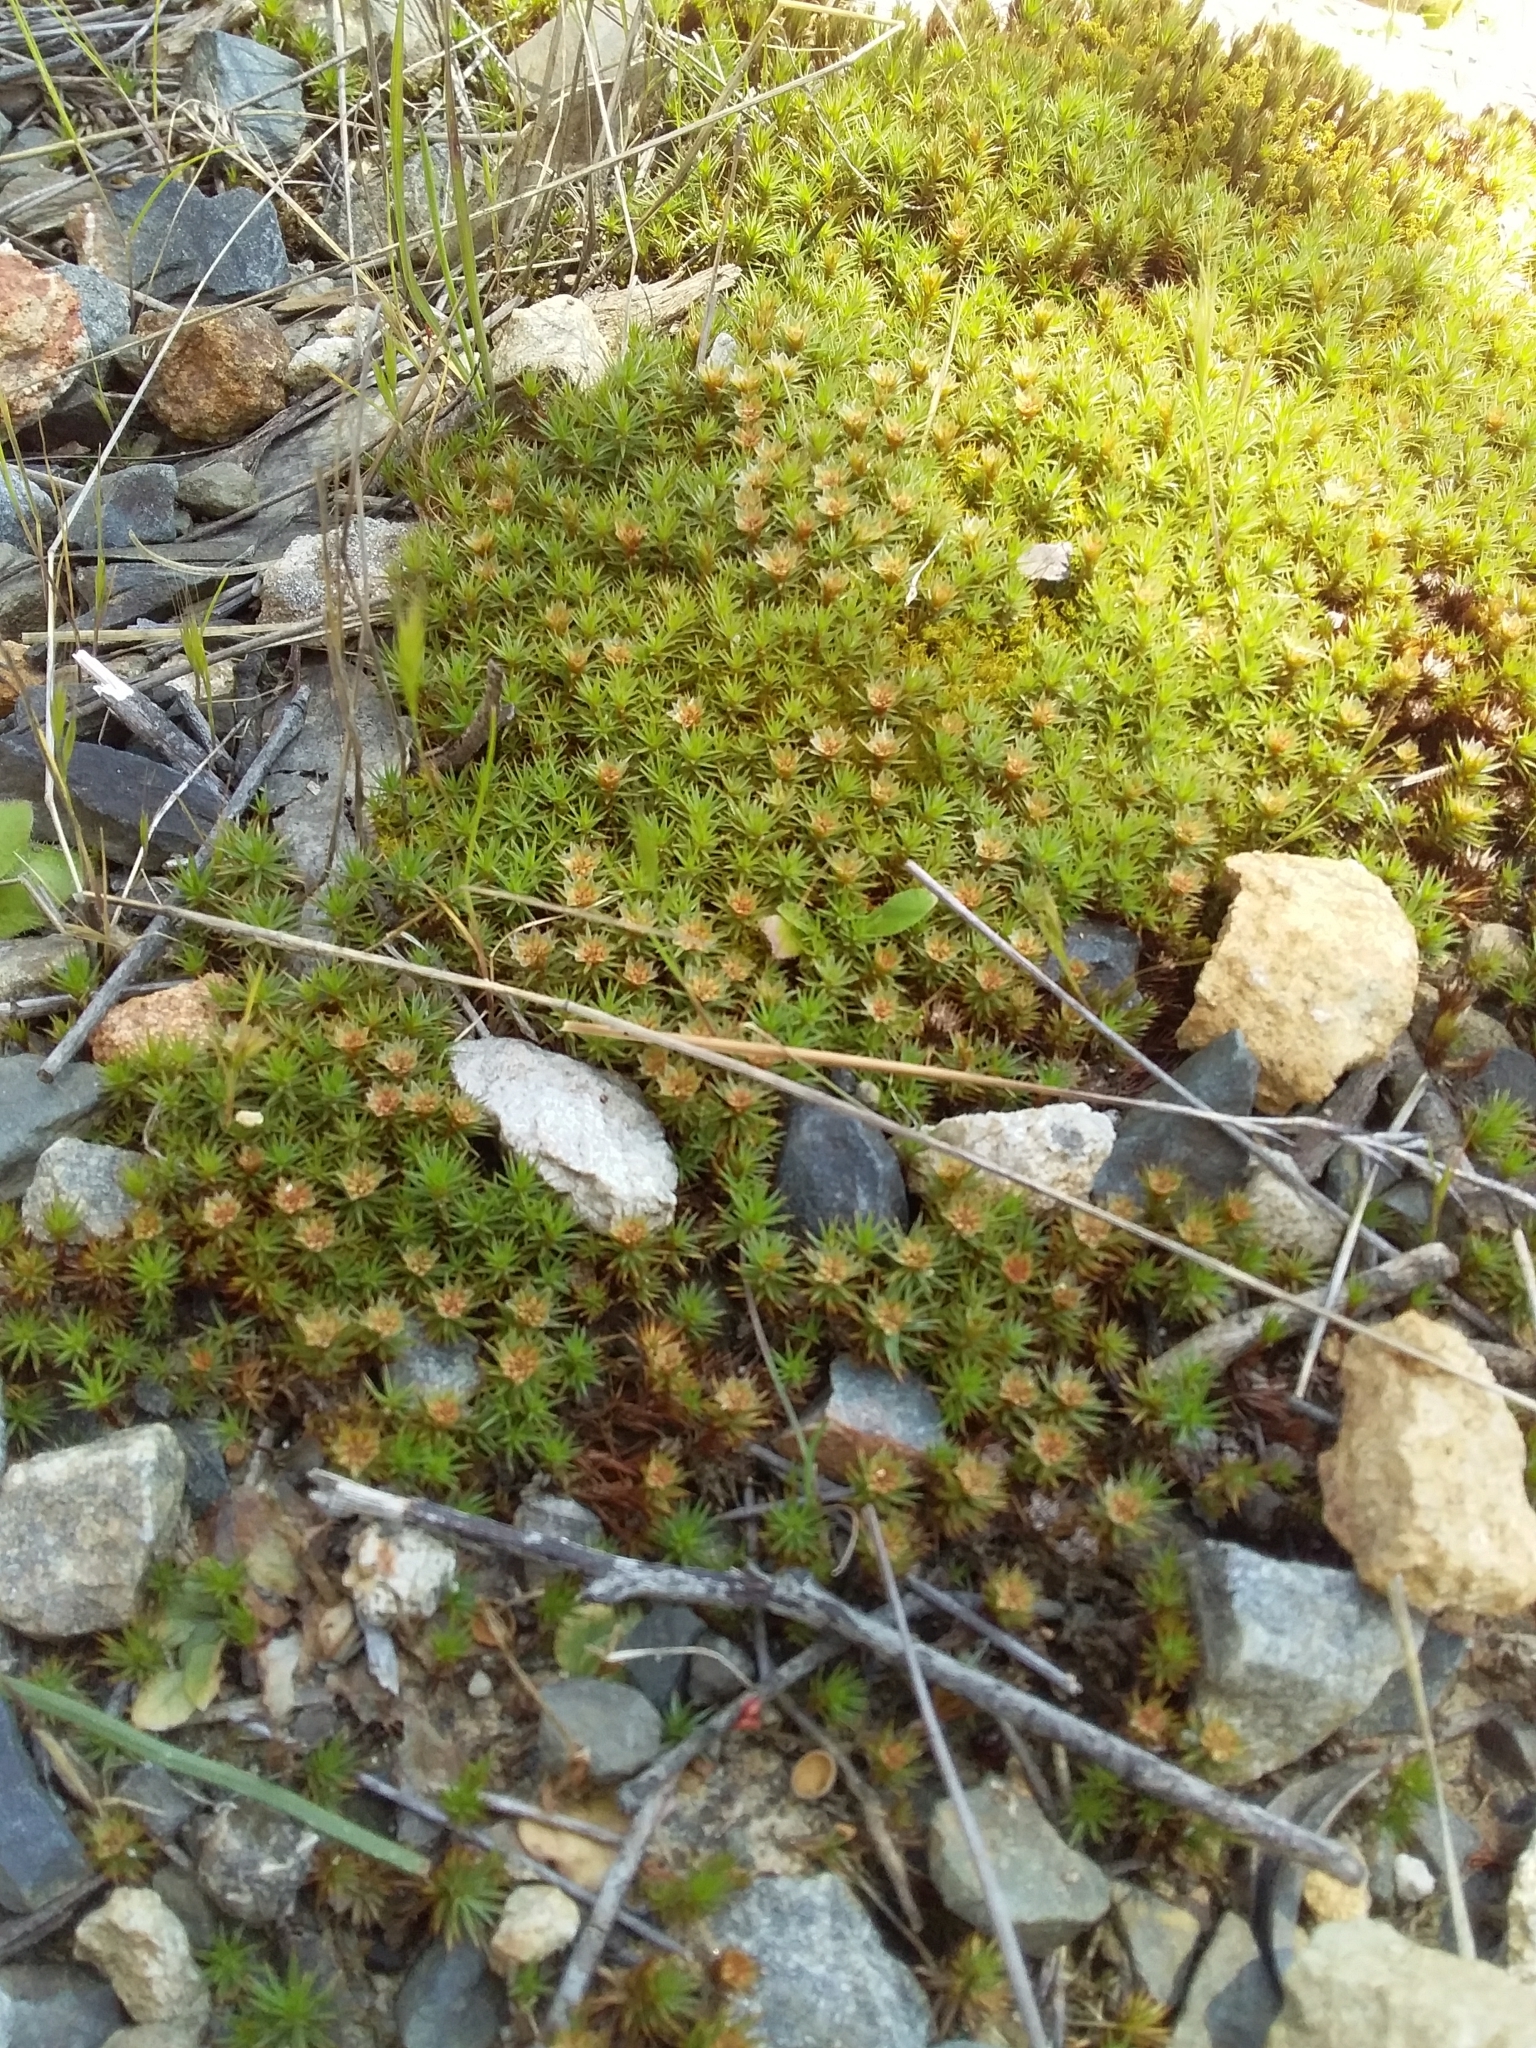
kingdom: Plantae
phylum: Bryophyta
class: Polytrichopsida
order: Polytrichales
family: Polytrichaceae
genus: Polytrichum
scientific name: Polytrichum juniperinum
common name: Juniper haircap moss
